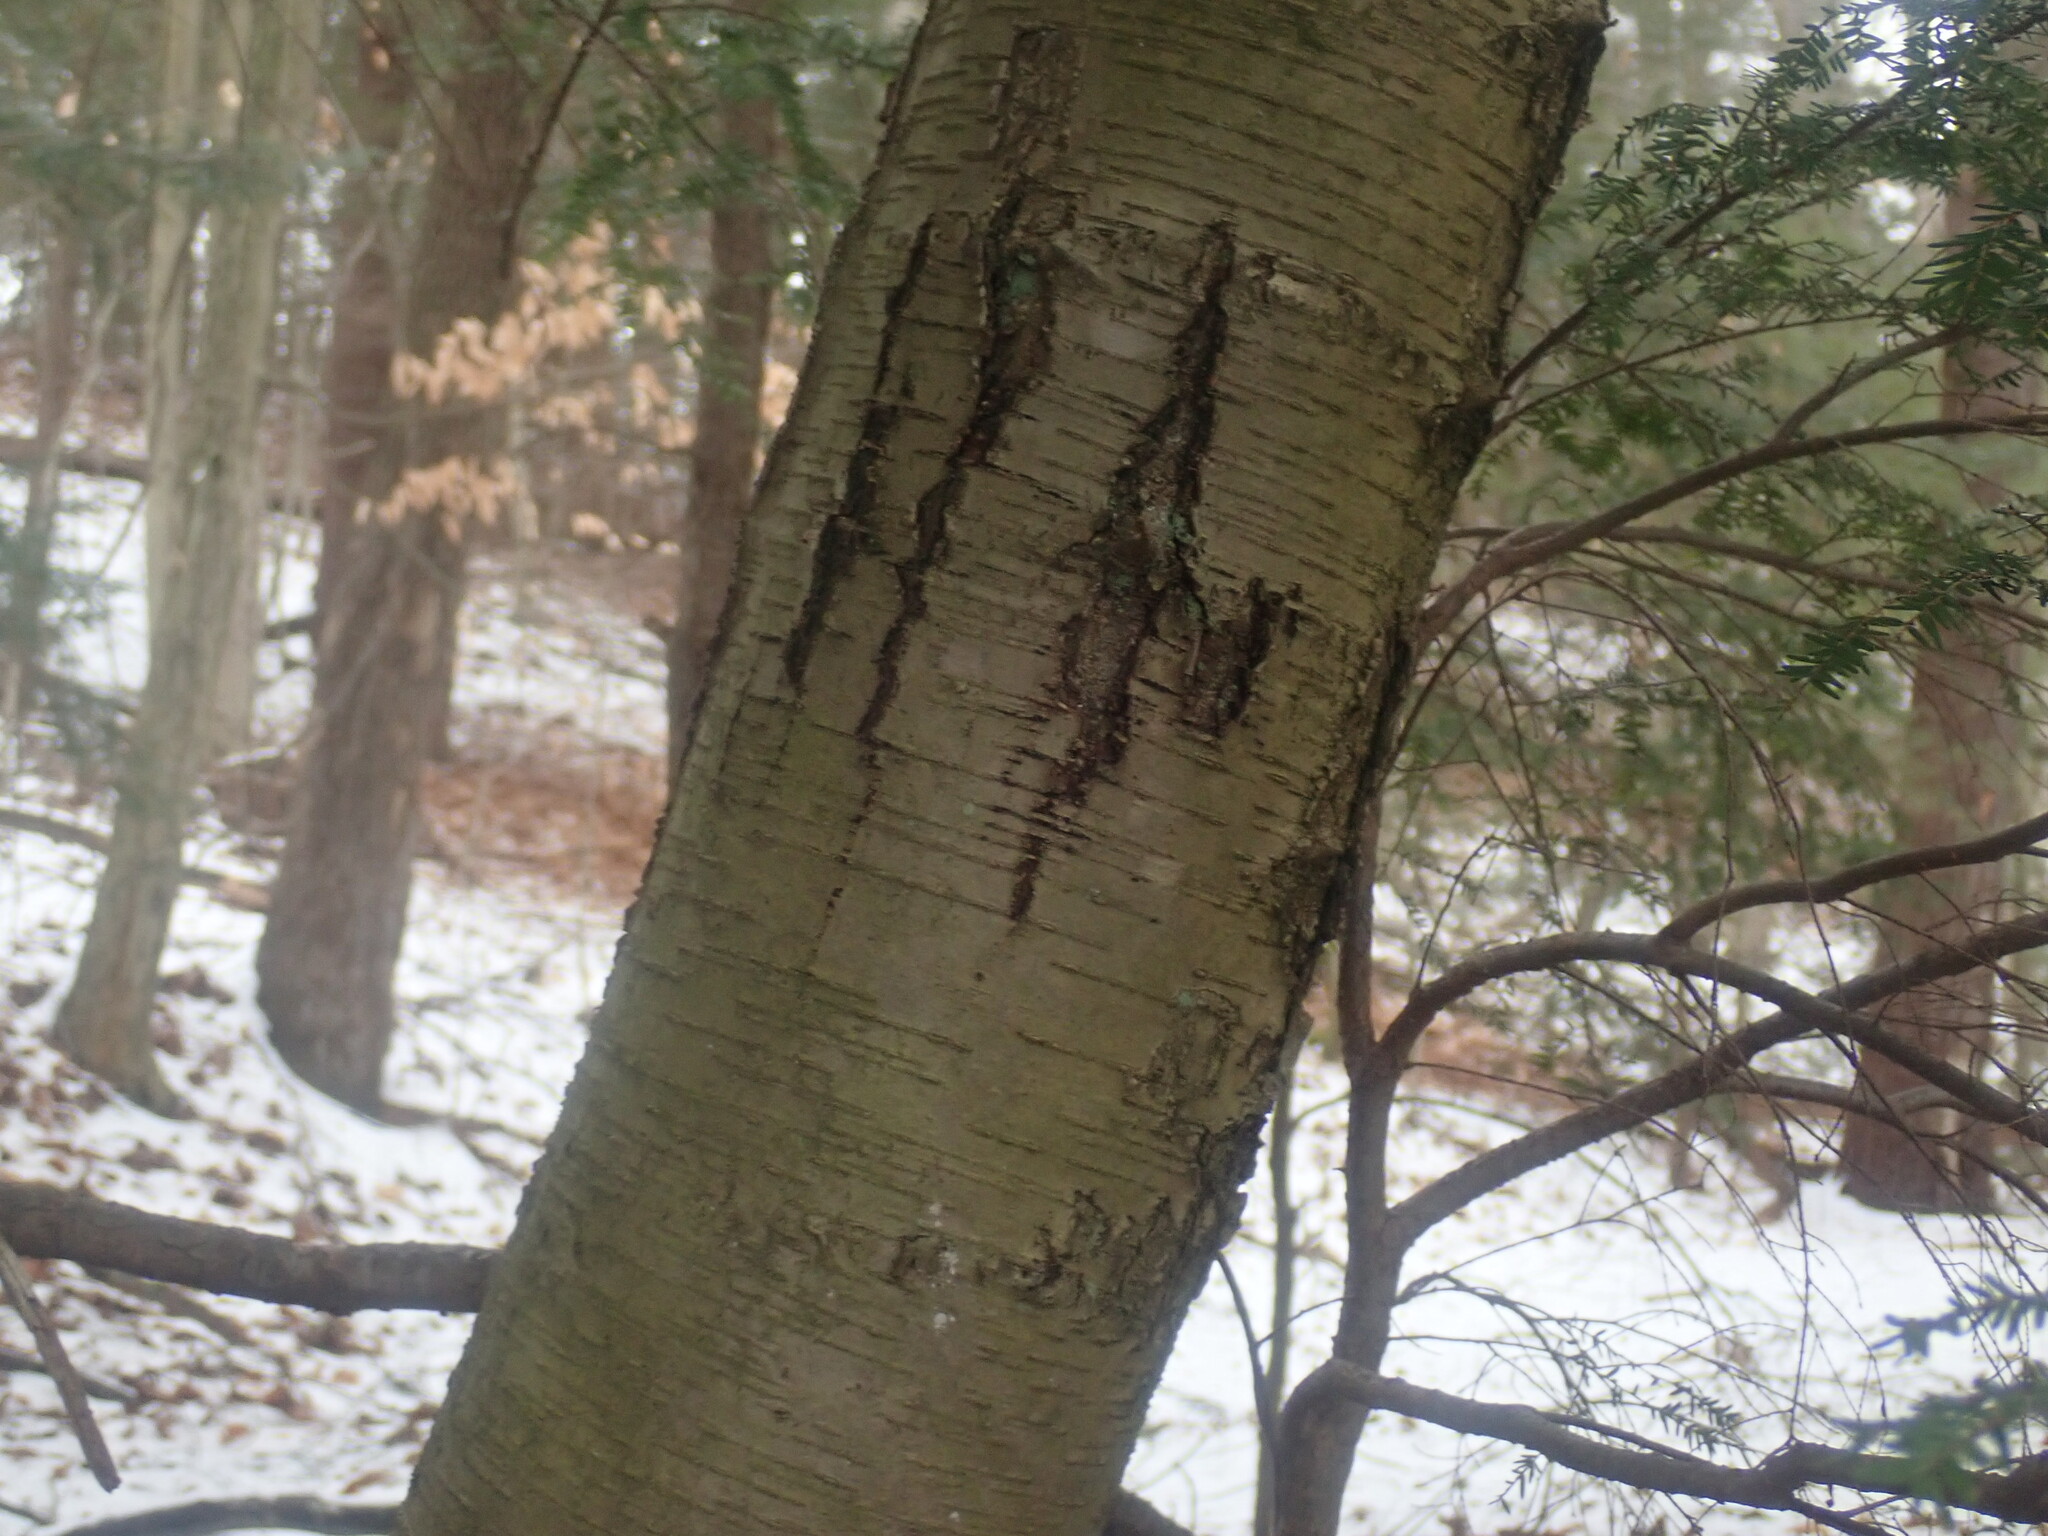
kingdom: Plantae
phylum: Tracheophyta
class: Magnoliopsida
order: Fagales
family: Betulaceae
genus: Betula
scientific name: Betula lenta
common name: Black birch
